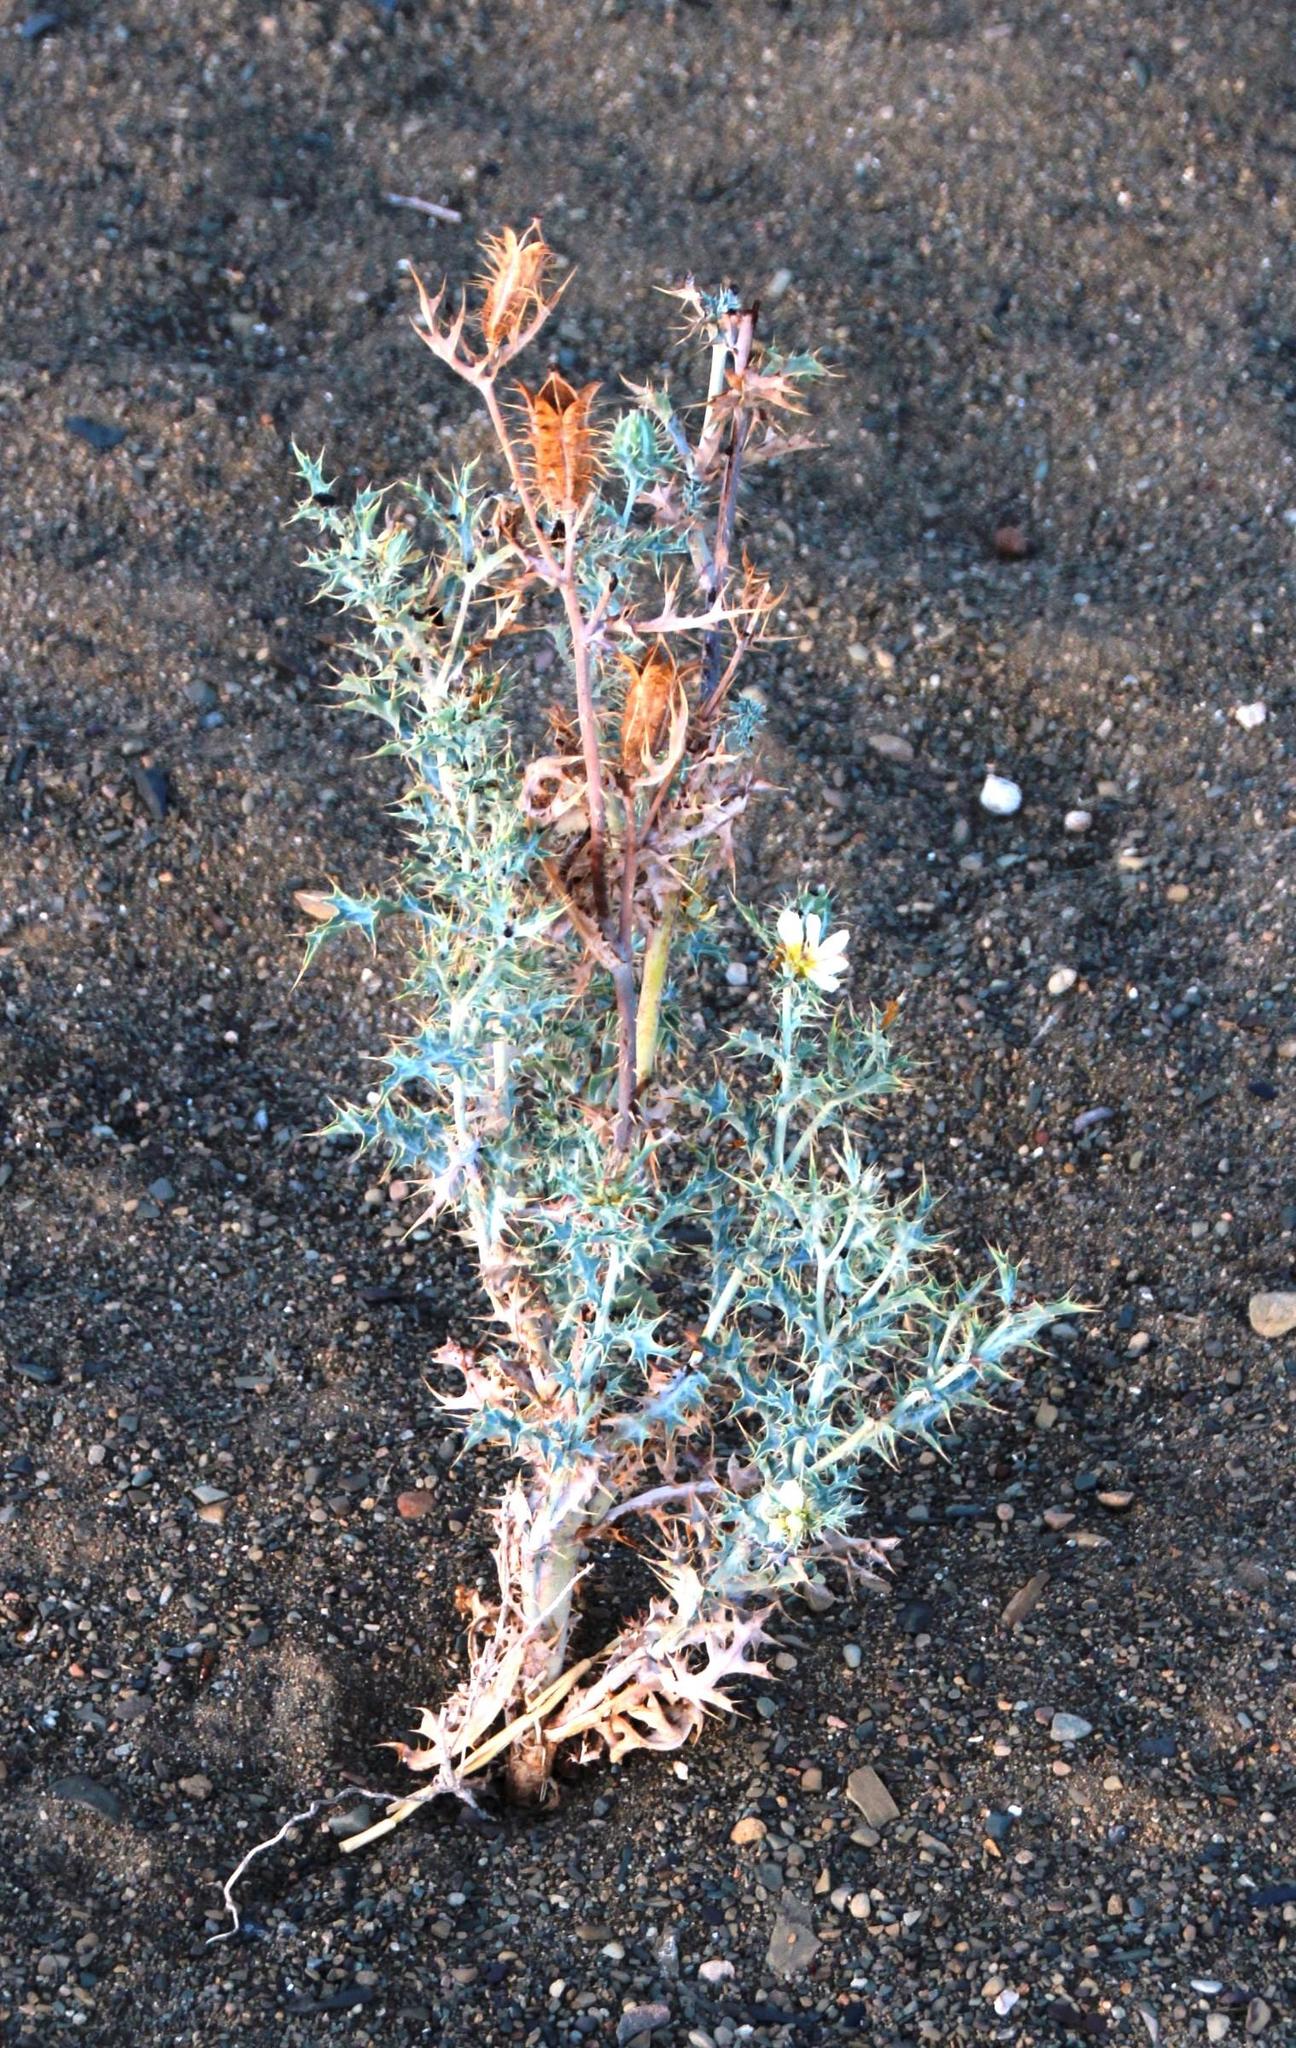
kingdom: Plantae
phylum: Tracheophyta
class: Magnoliopsida
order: Ranunculales
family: Papaveraceae
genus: Argemone
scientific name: Argemone ochroleuca
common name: White-flower mexican-poppy
